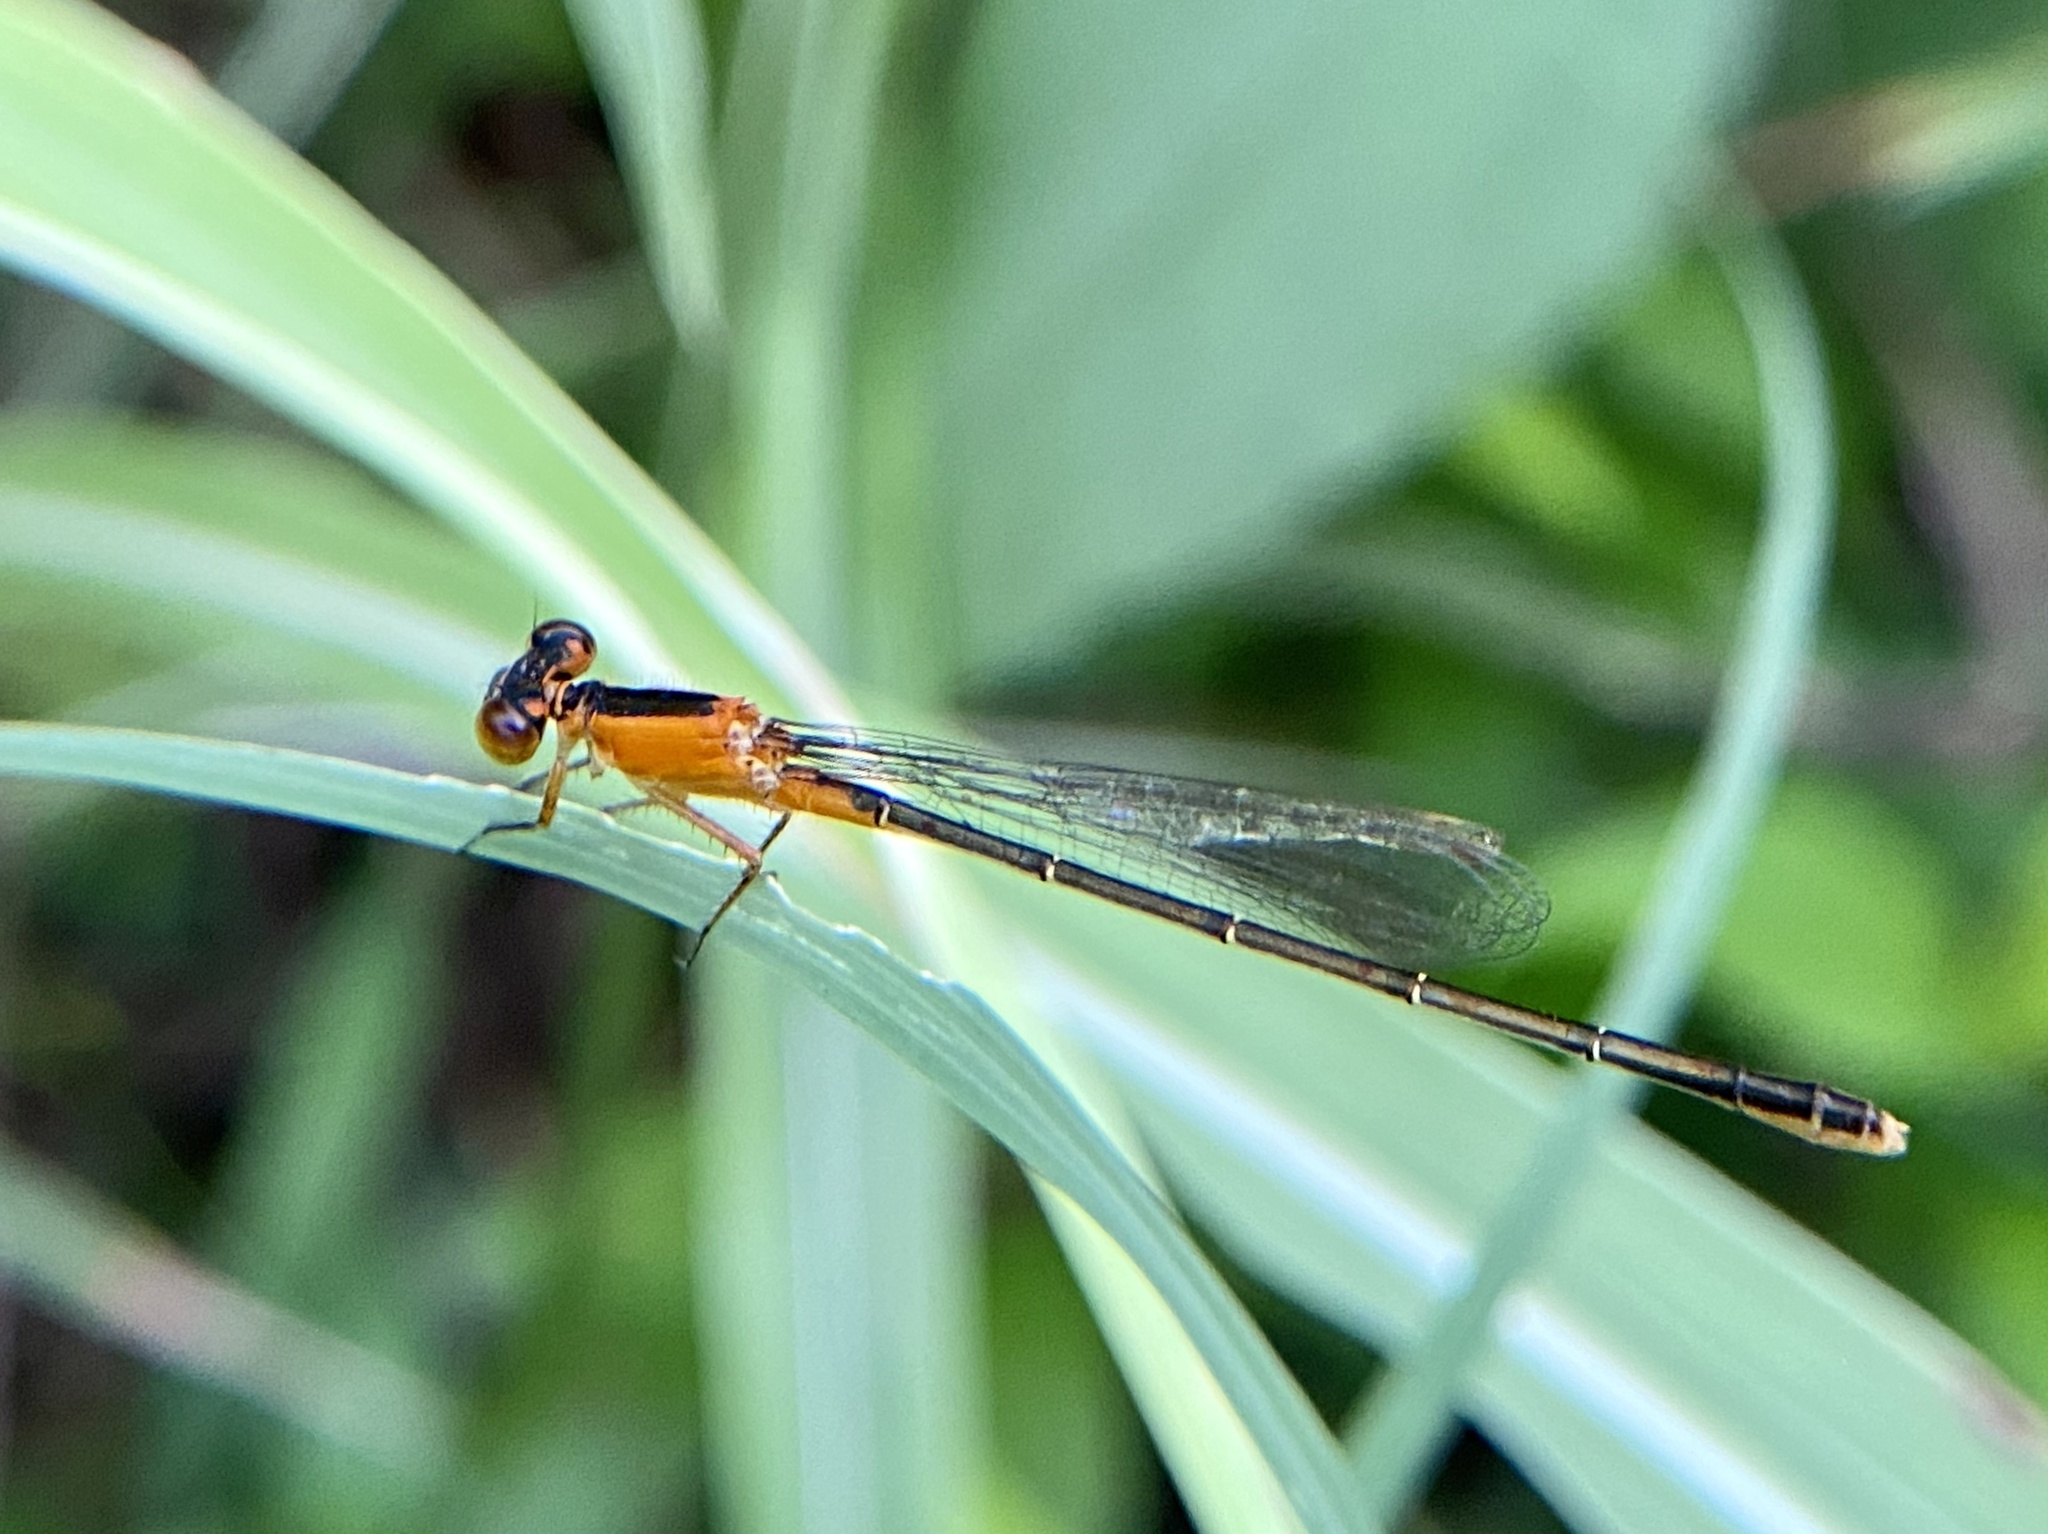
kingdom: Animalia
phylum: Arthropoda
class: Insecta
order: Odonata
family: Coenagrionidae
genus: Ischnura
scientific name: Ischnura ramburii
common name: Rambur's forktail
